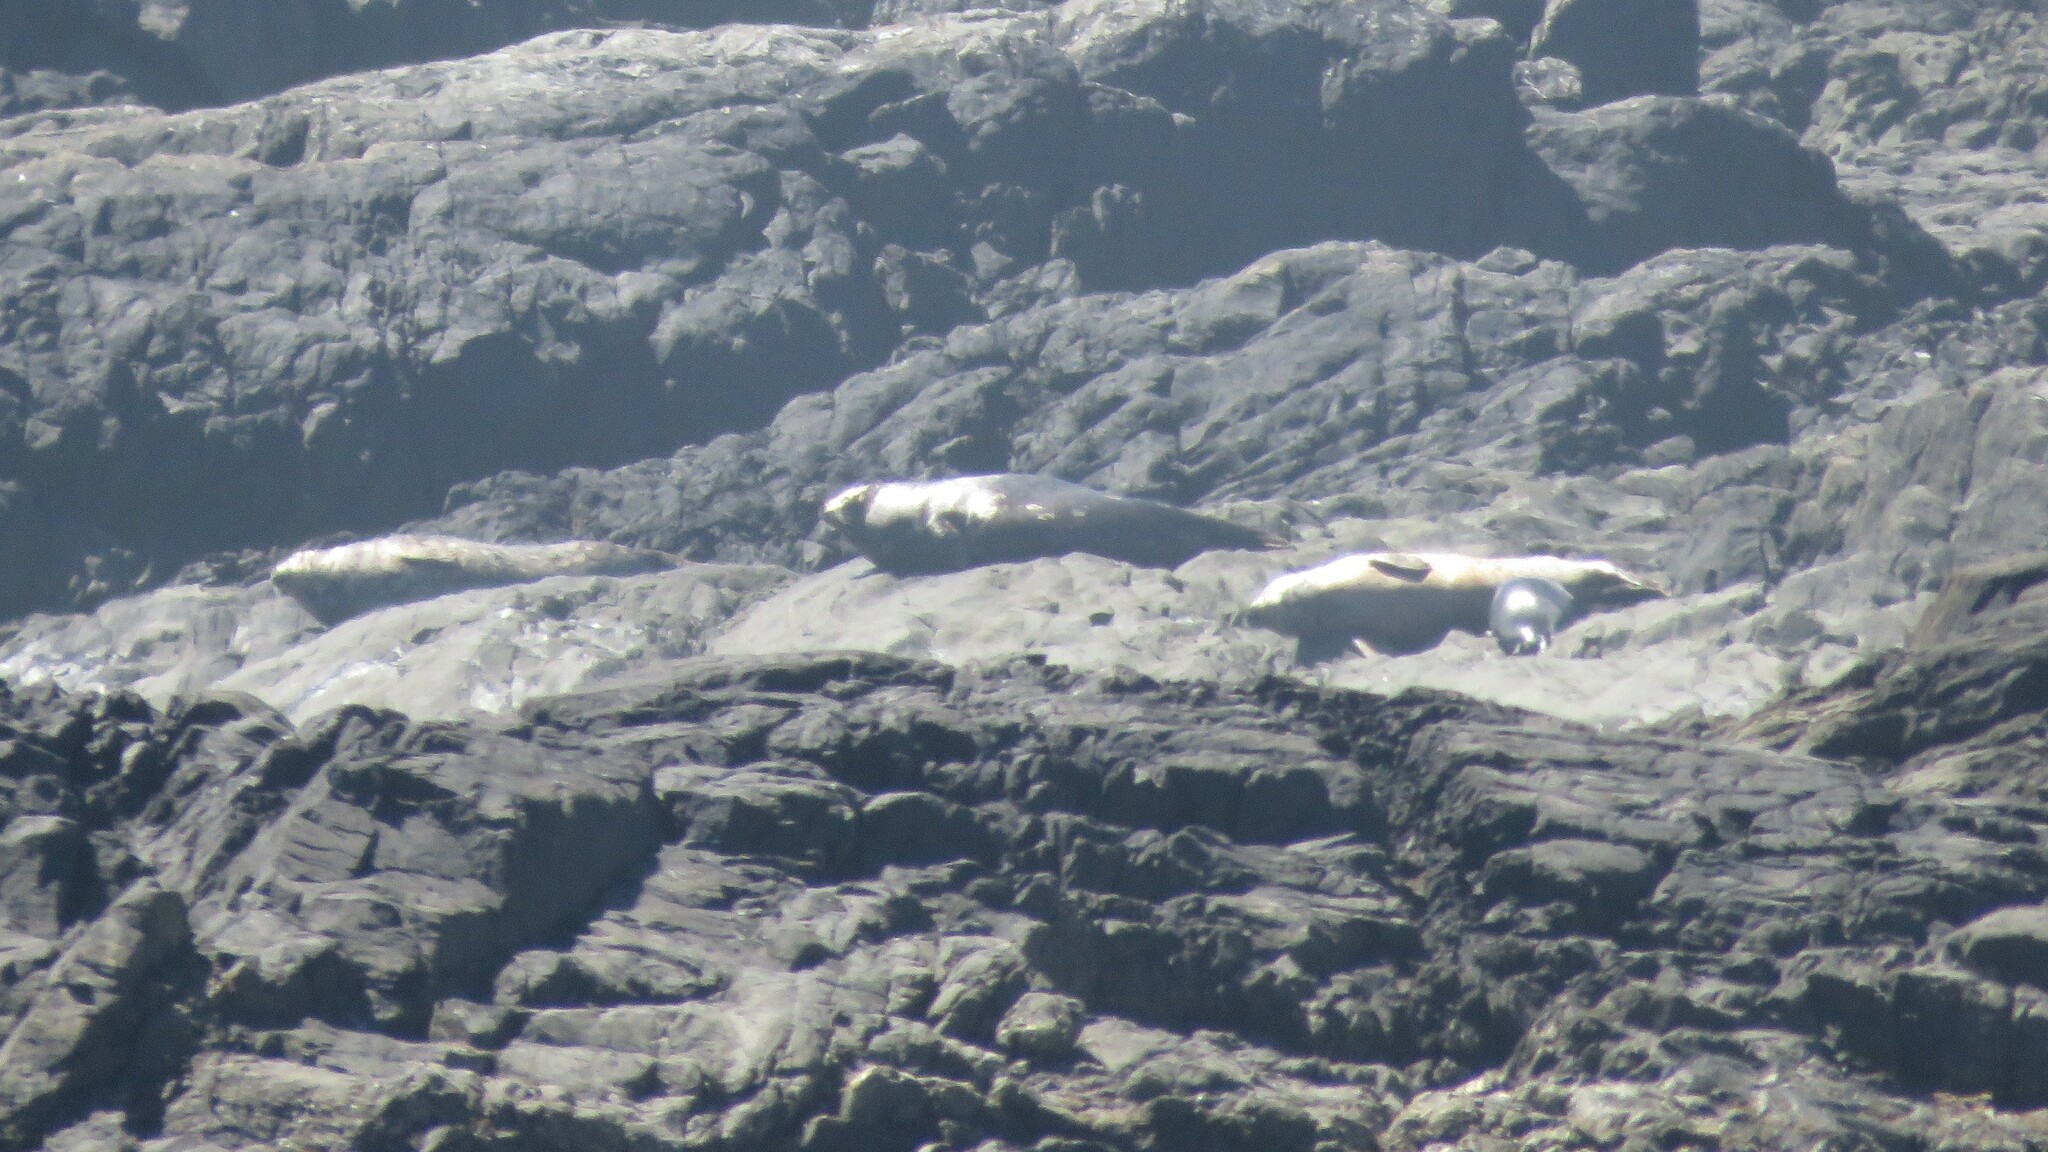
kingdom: Animalia
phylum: Chordata
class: Mammalia
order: Carnivora
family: Phocidae
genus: Phoca
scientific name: Phoca vitulina
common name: Harbor seal
